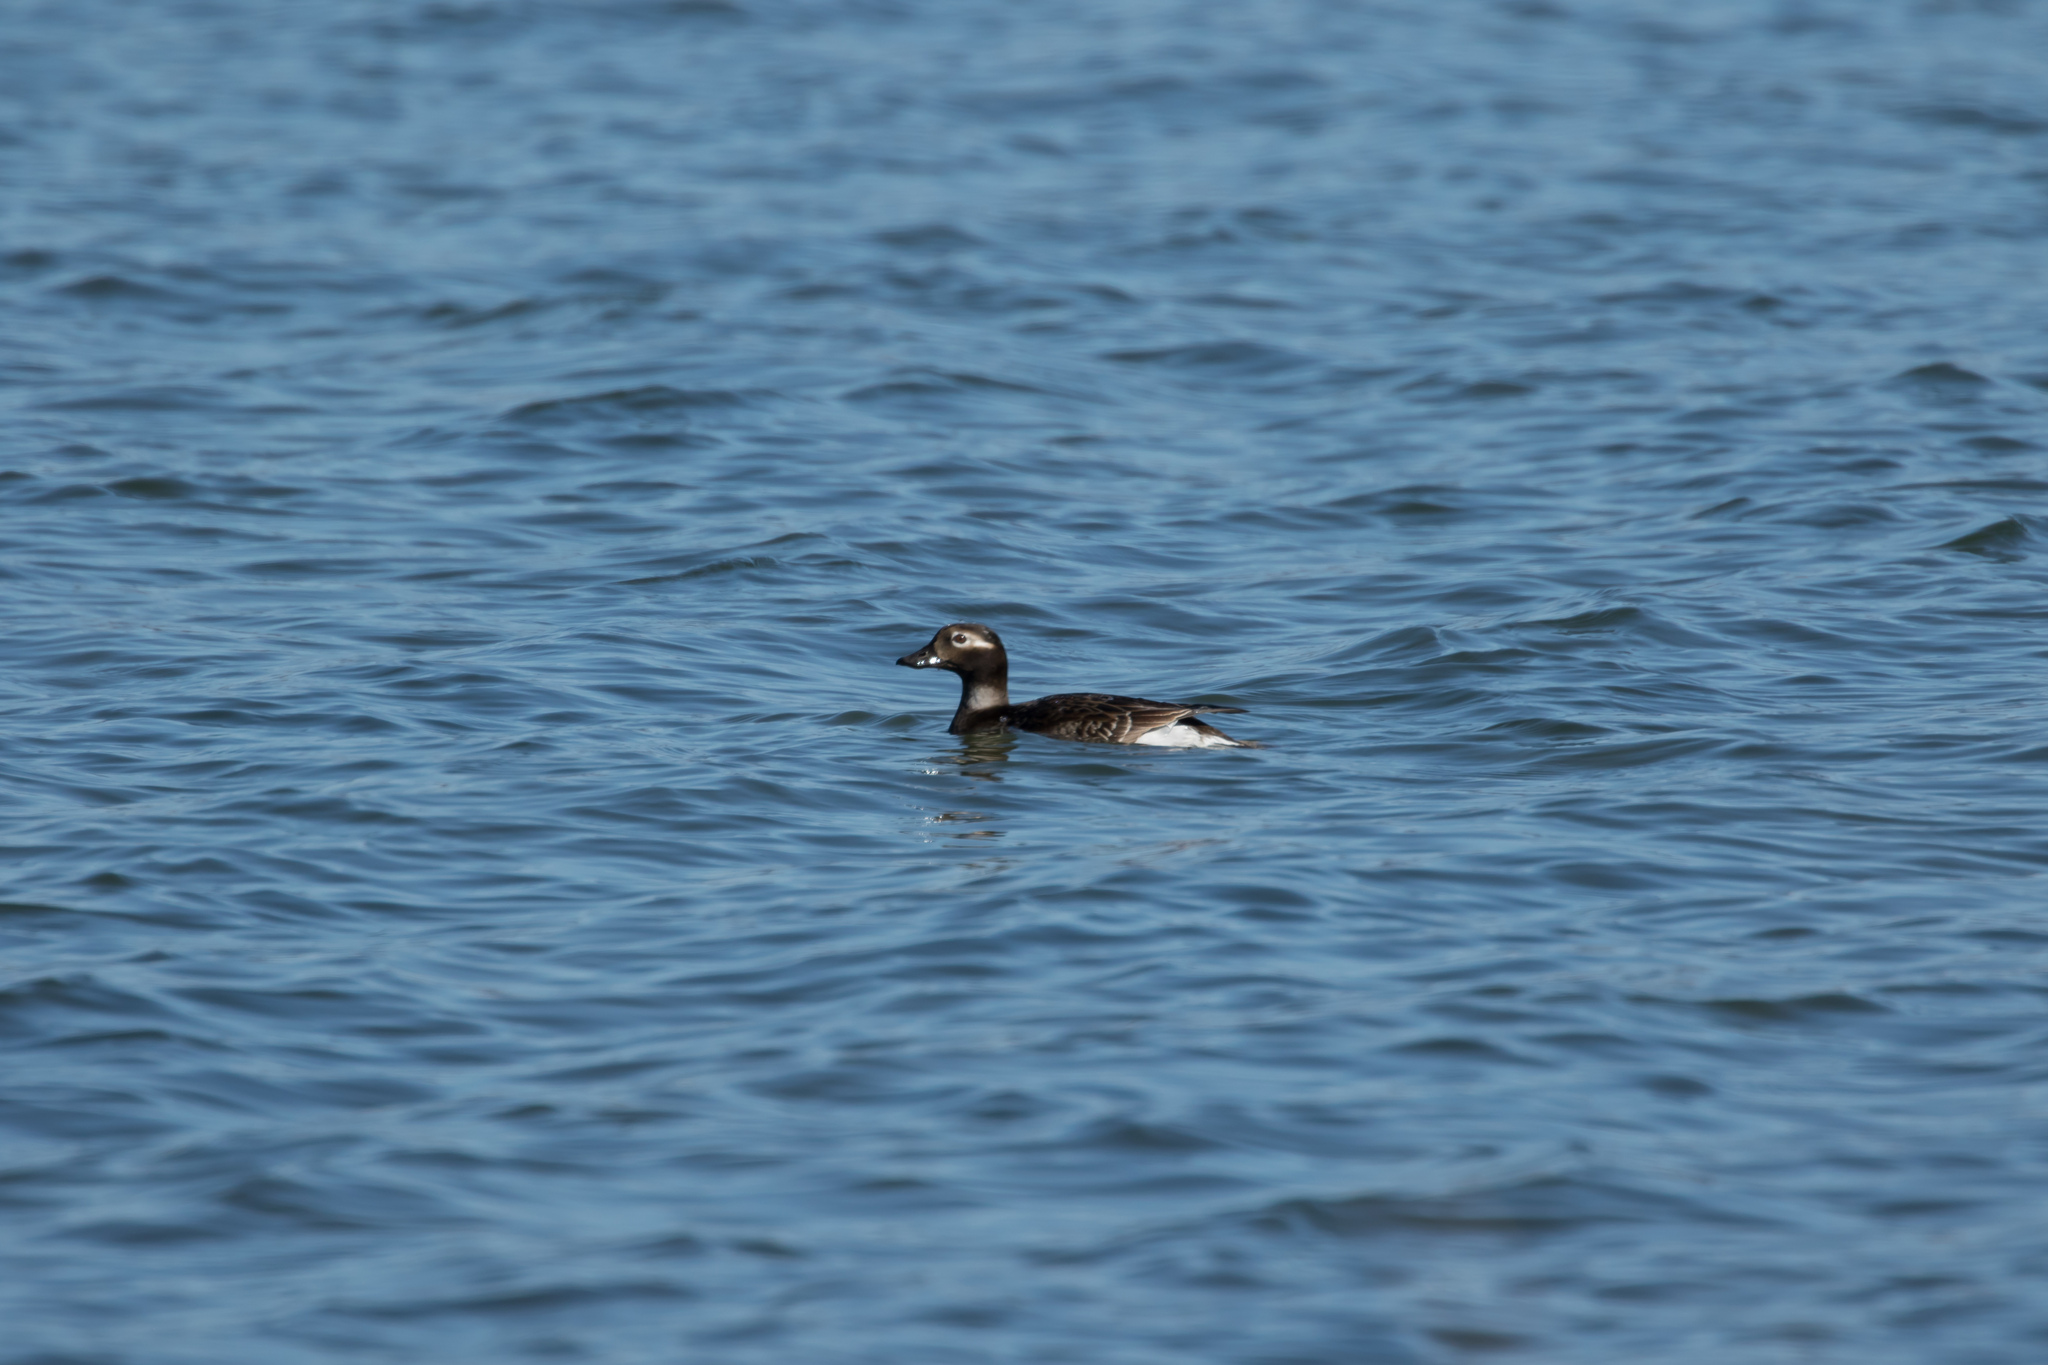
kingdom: Animalia
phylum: Chordata
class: Aves
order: Anseriformes
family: Anatidae
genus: Clangula
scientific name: Clangula hyemalis
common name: Long-tailed duck
